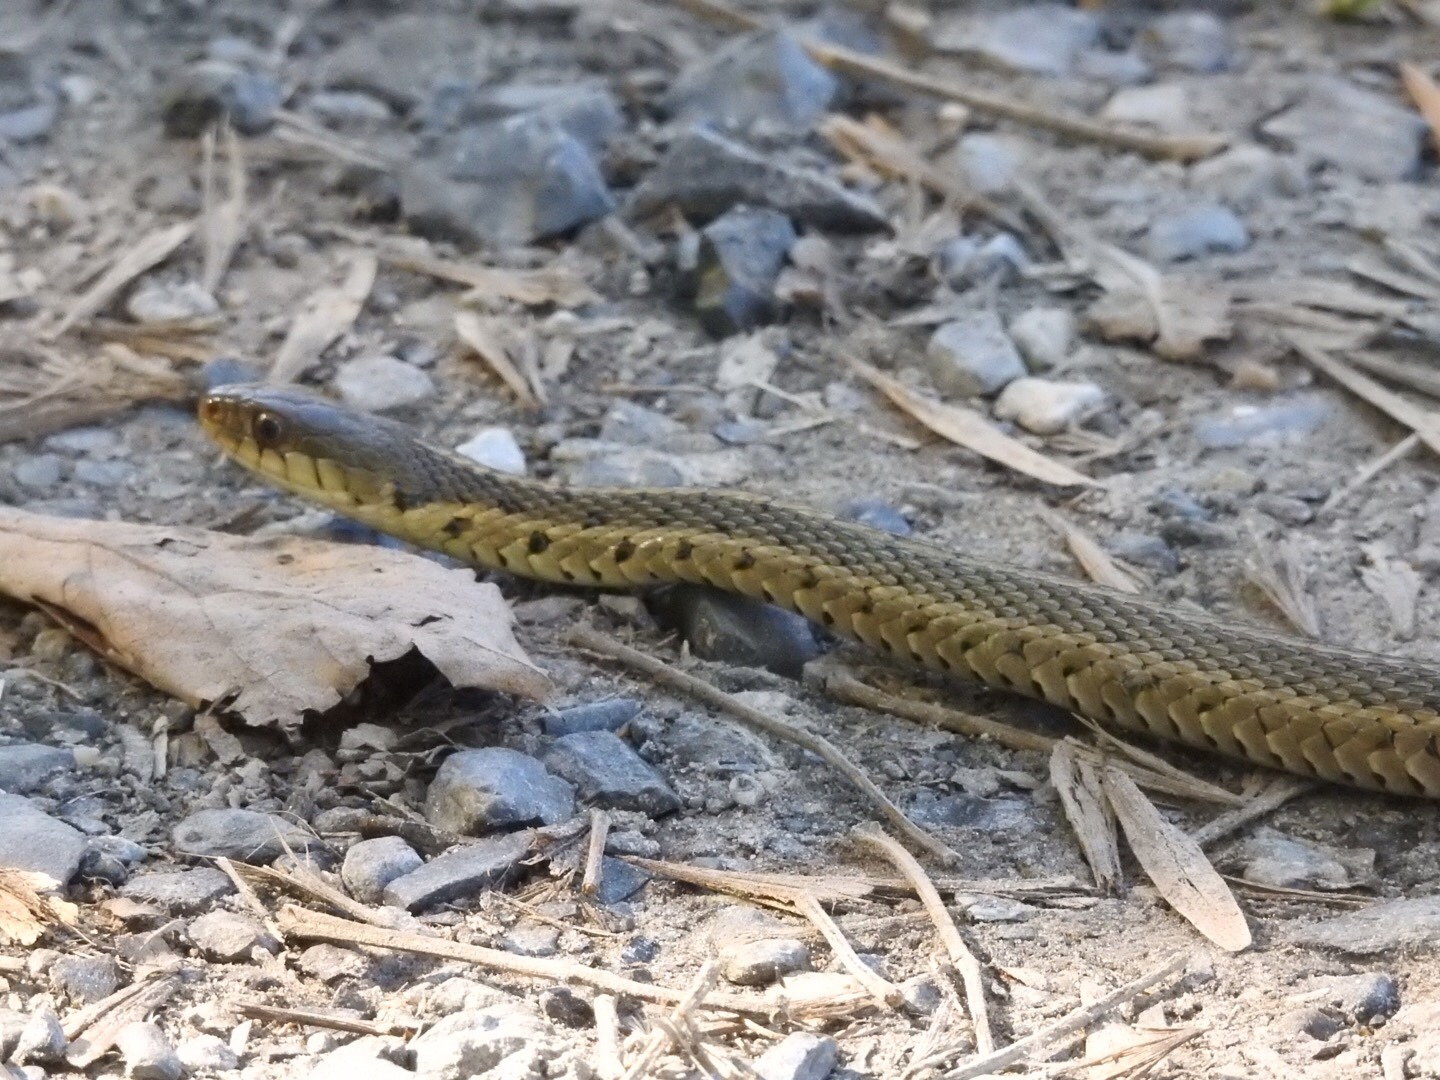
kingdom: Animalia
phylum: Chordata
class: Squamata
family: Colubridae
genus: Thamnophis
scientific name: Thamnophis sirtalis
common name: Common garter snake
